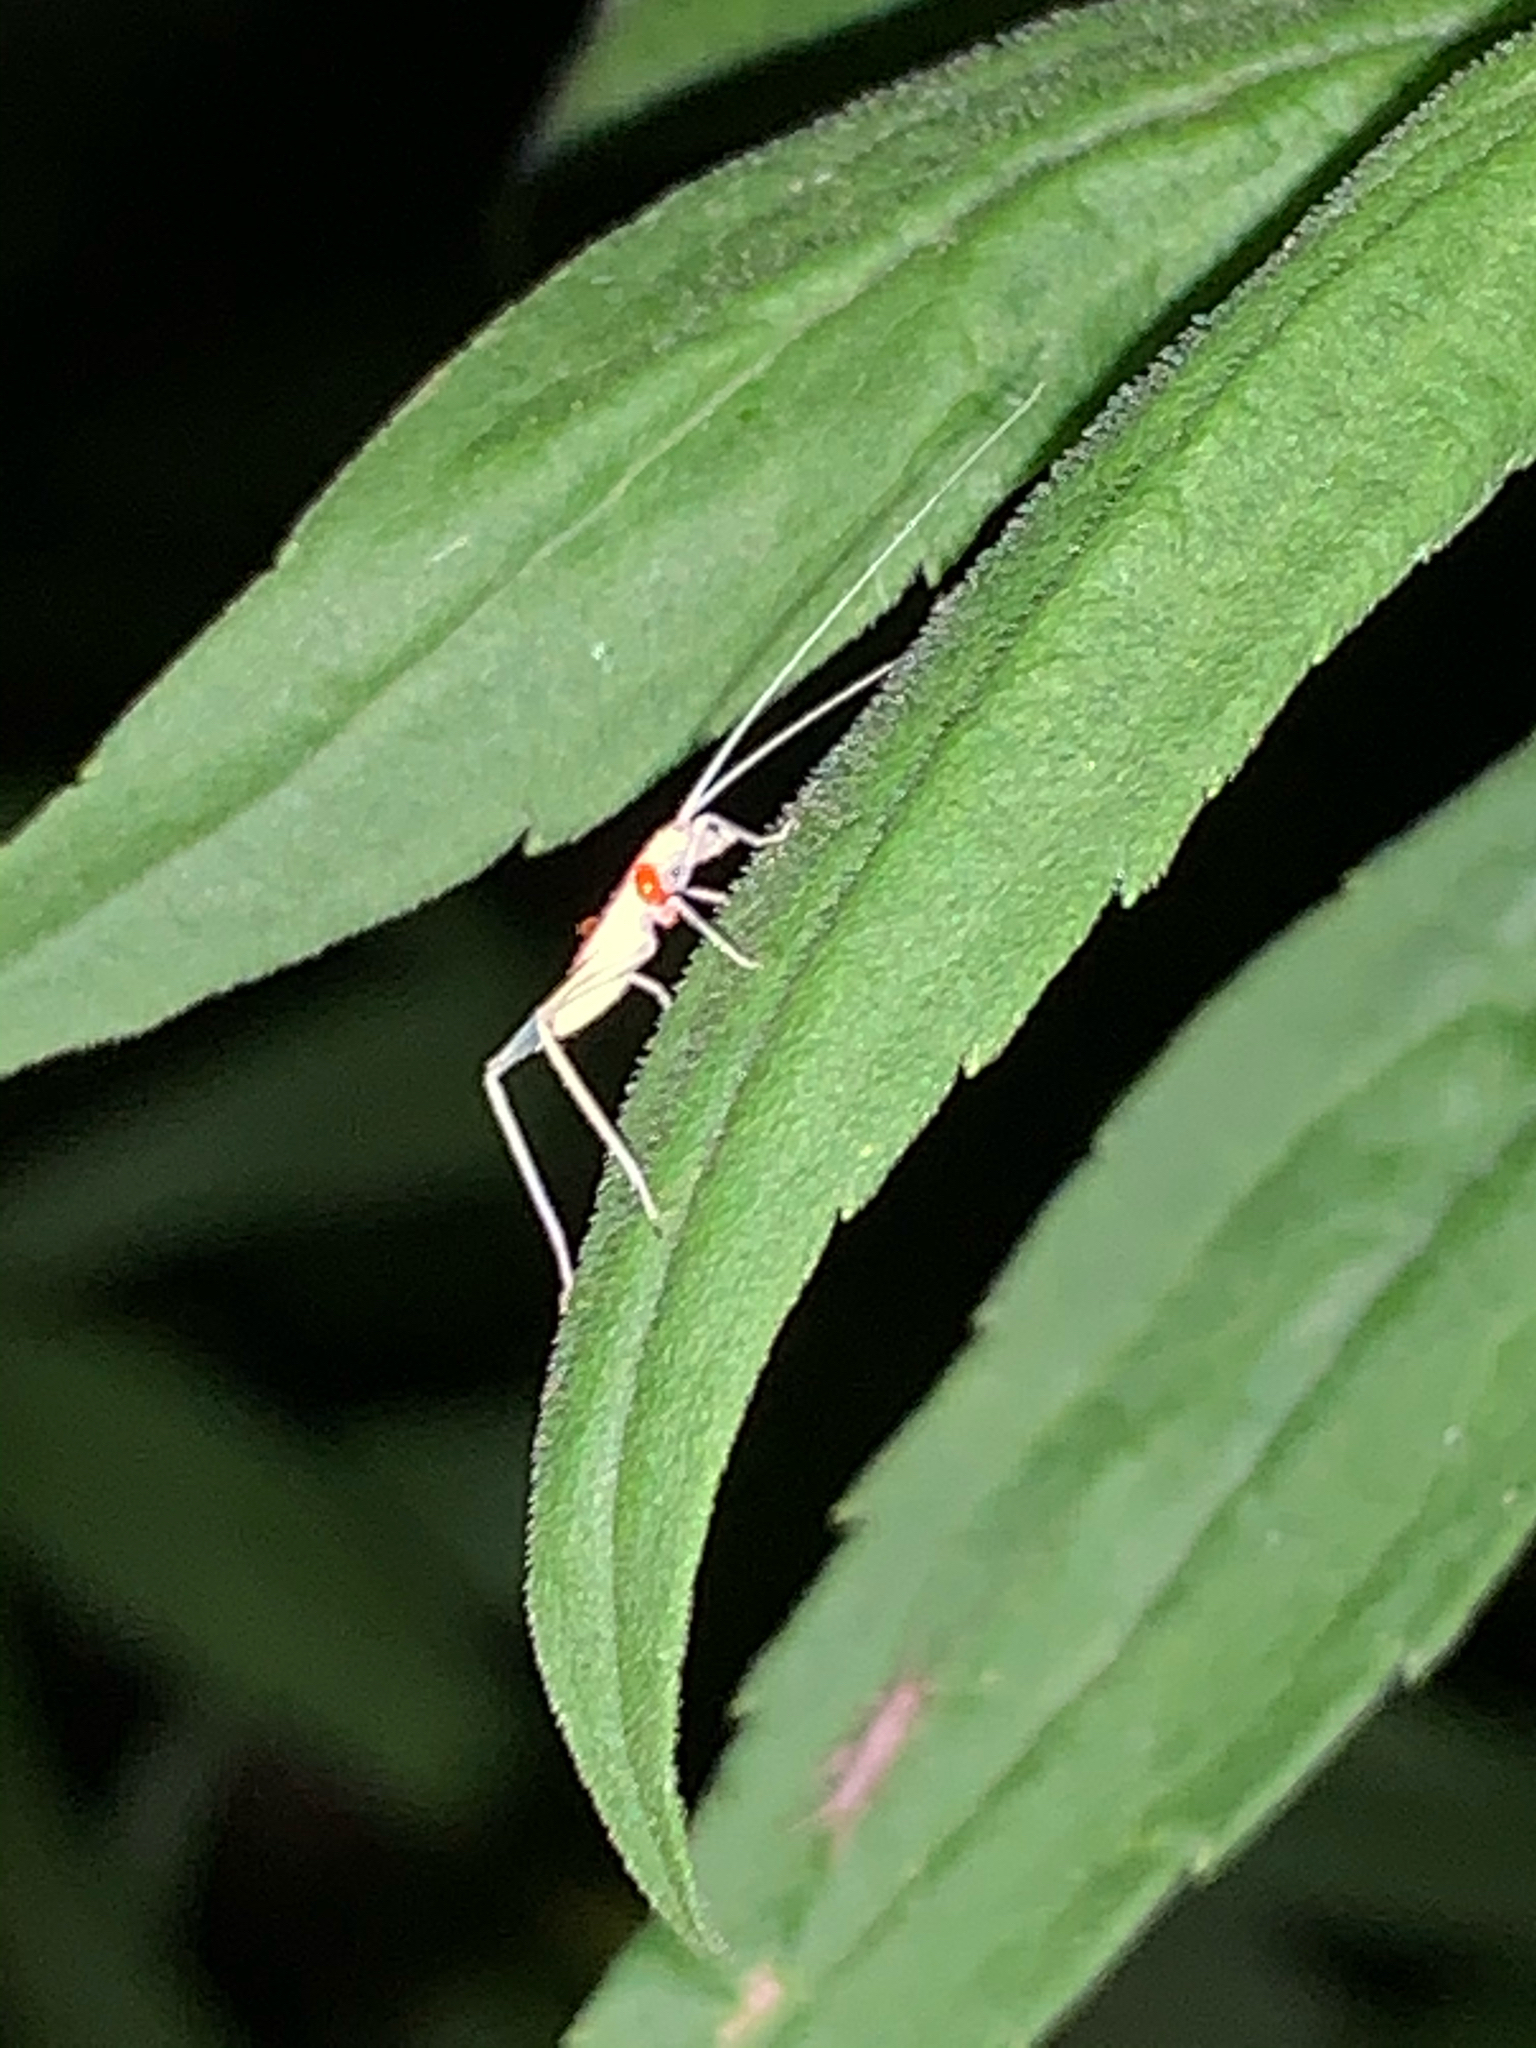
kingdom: Animalia
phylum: Arthropoda
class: Insecta
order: Orthoptera
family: Gryllidae
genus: Oecanthus
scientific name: Oecanthus
